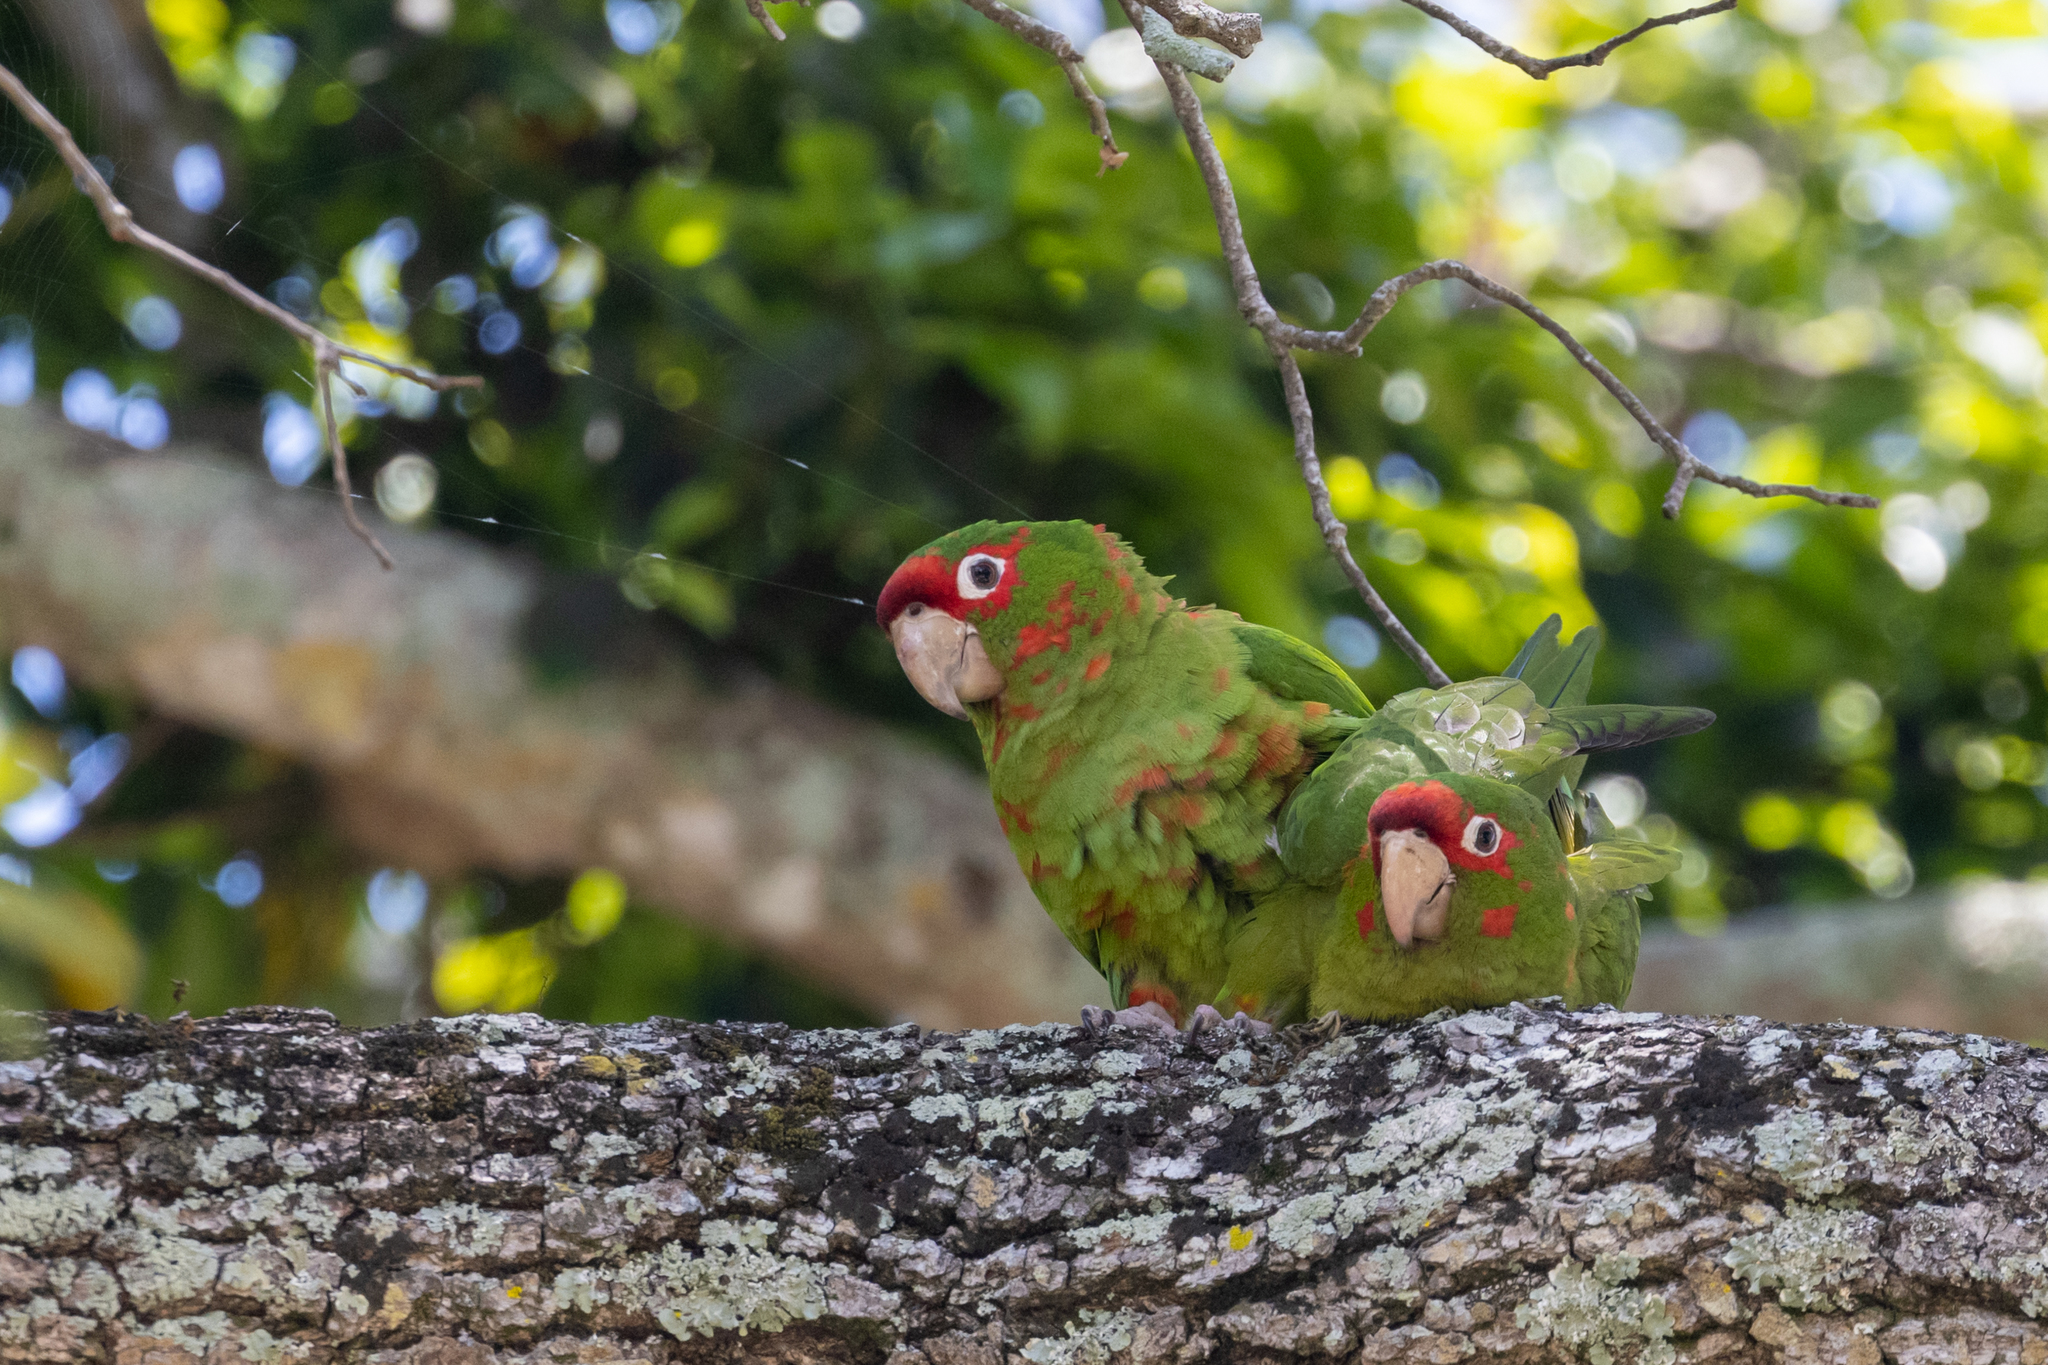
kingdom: Animalia
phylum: Chordata
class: Aves
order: Psittaciformes
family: Psittacidae
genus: Aratinga
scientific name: Aratinga mitrata
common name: Mitred parakeet
